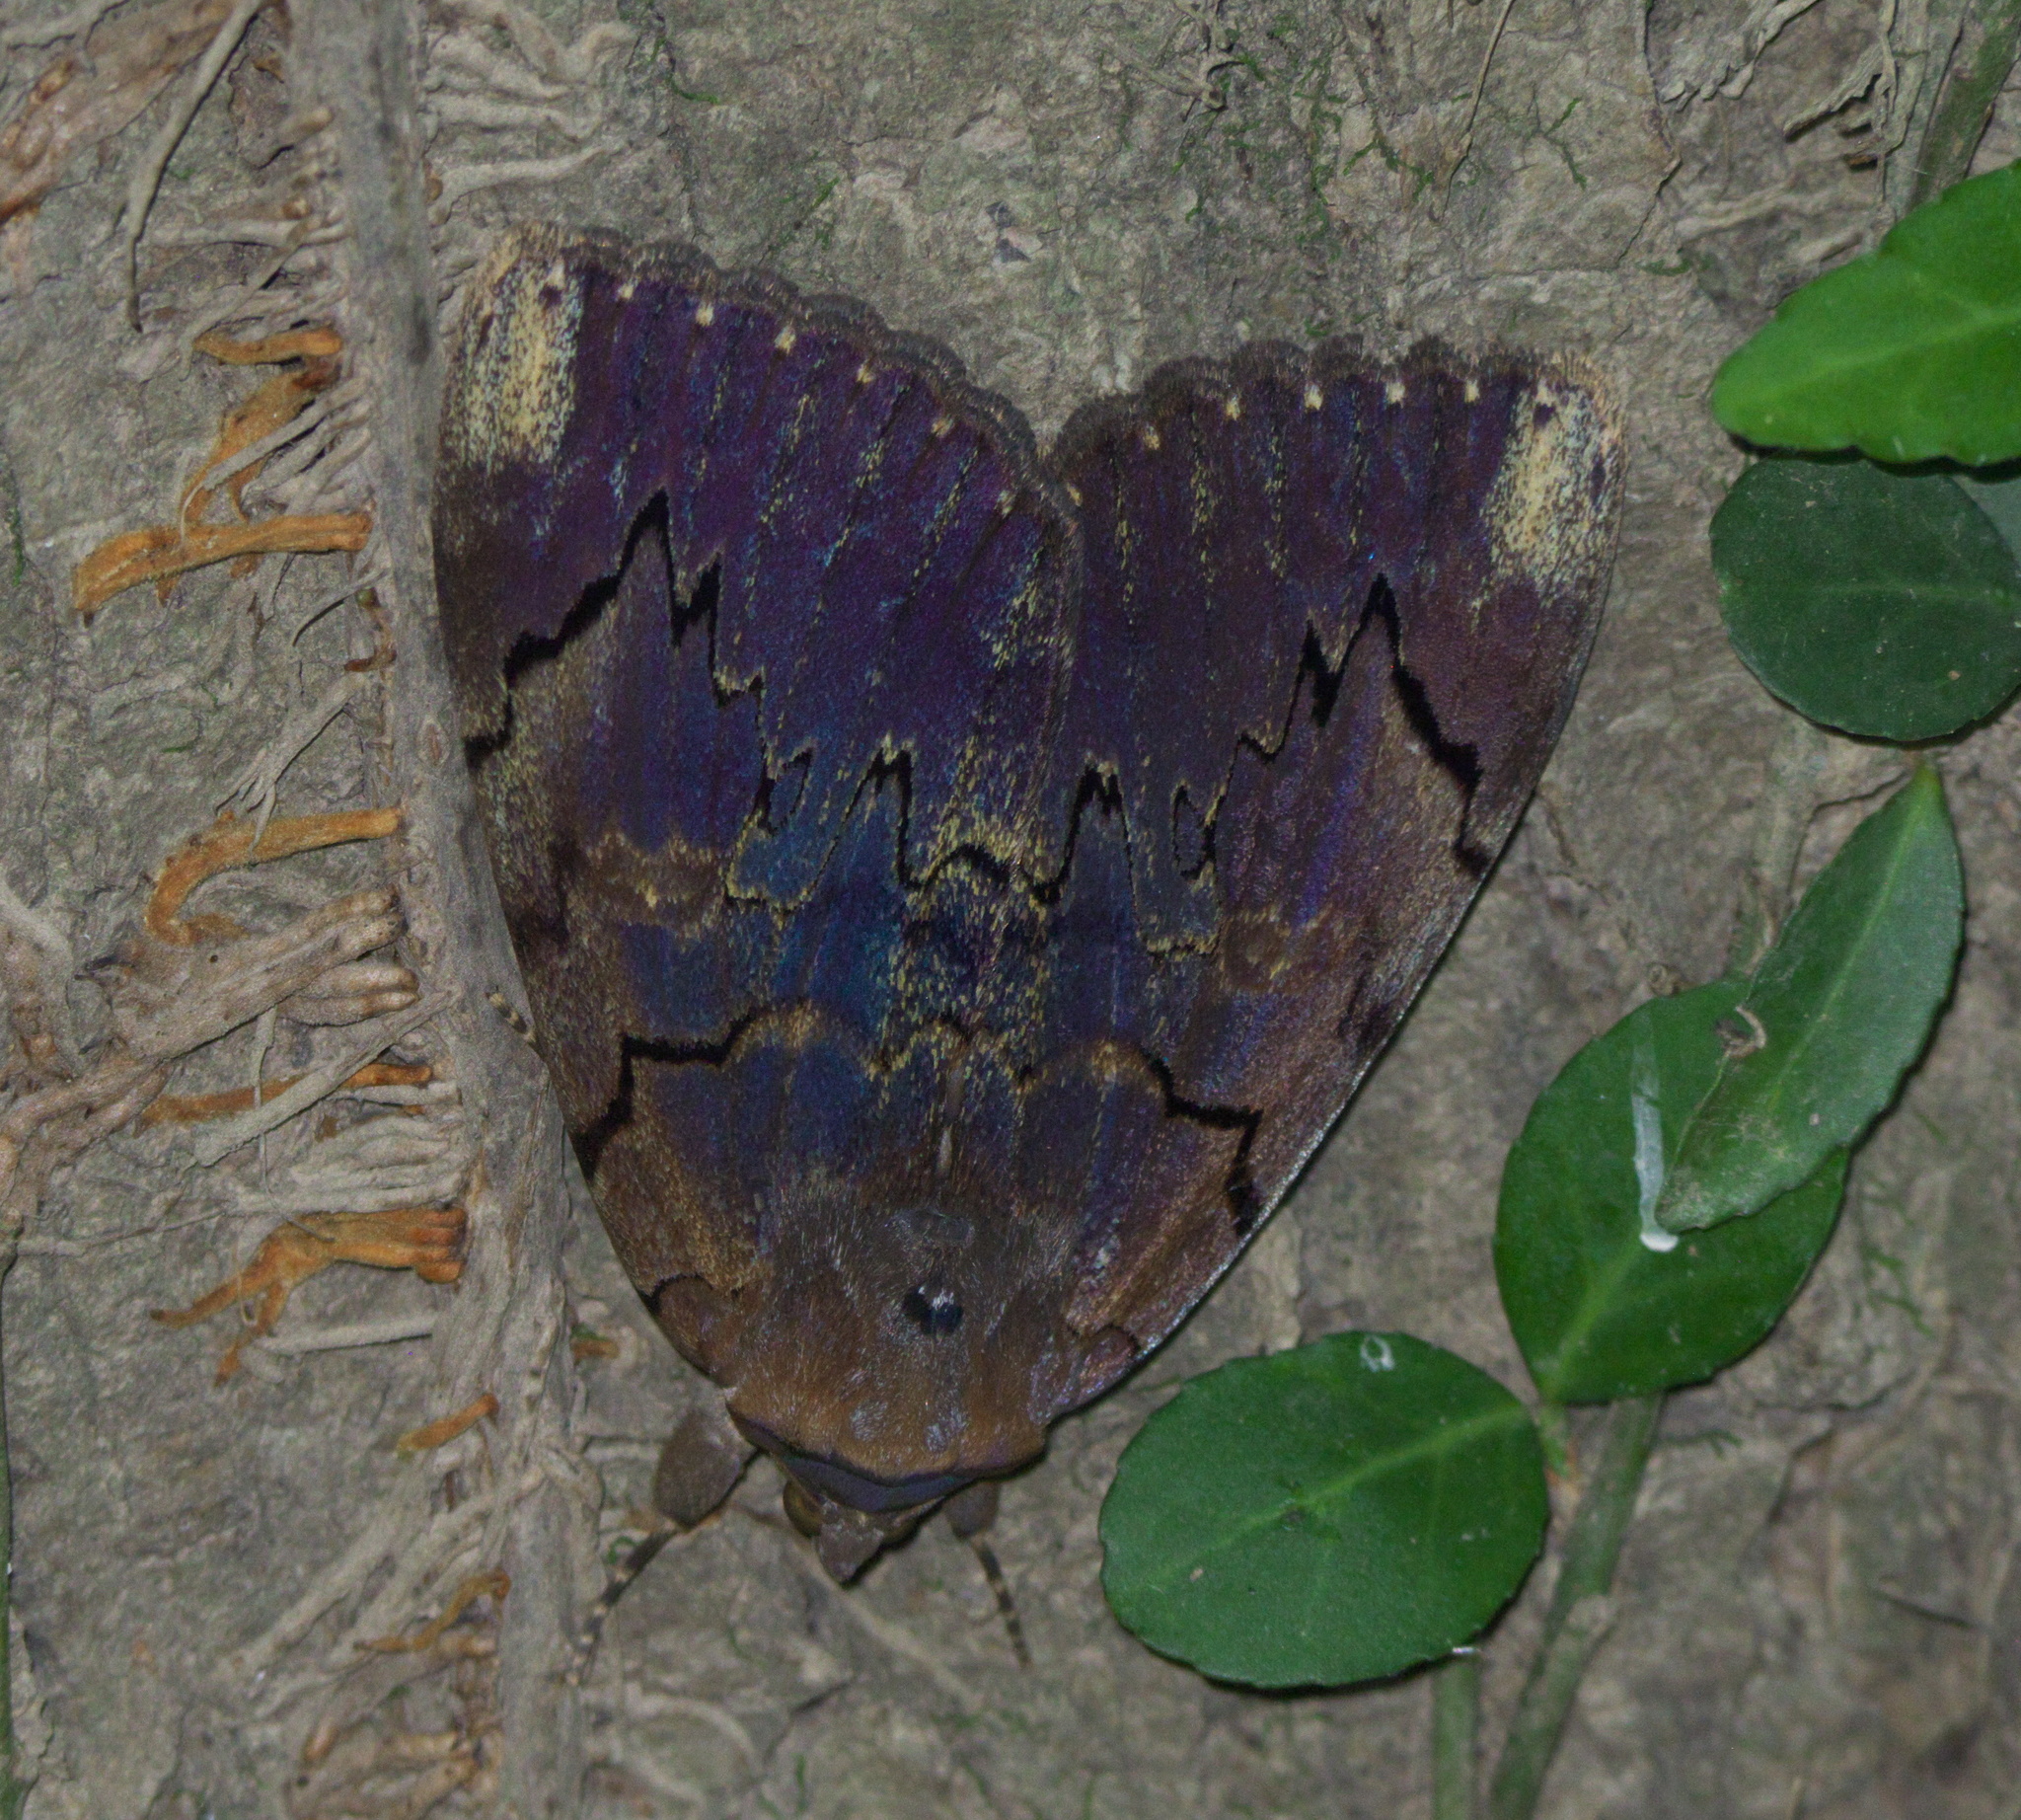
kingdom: Animalia
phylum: Arthropoda
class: Insecta
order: Lepidoptera
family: Erebidae
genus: Catocala
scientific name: Catocala carissima
